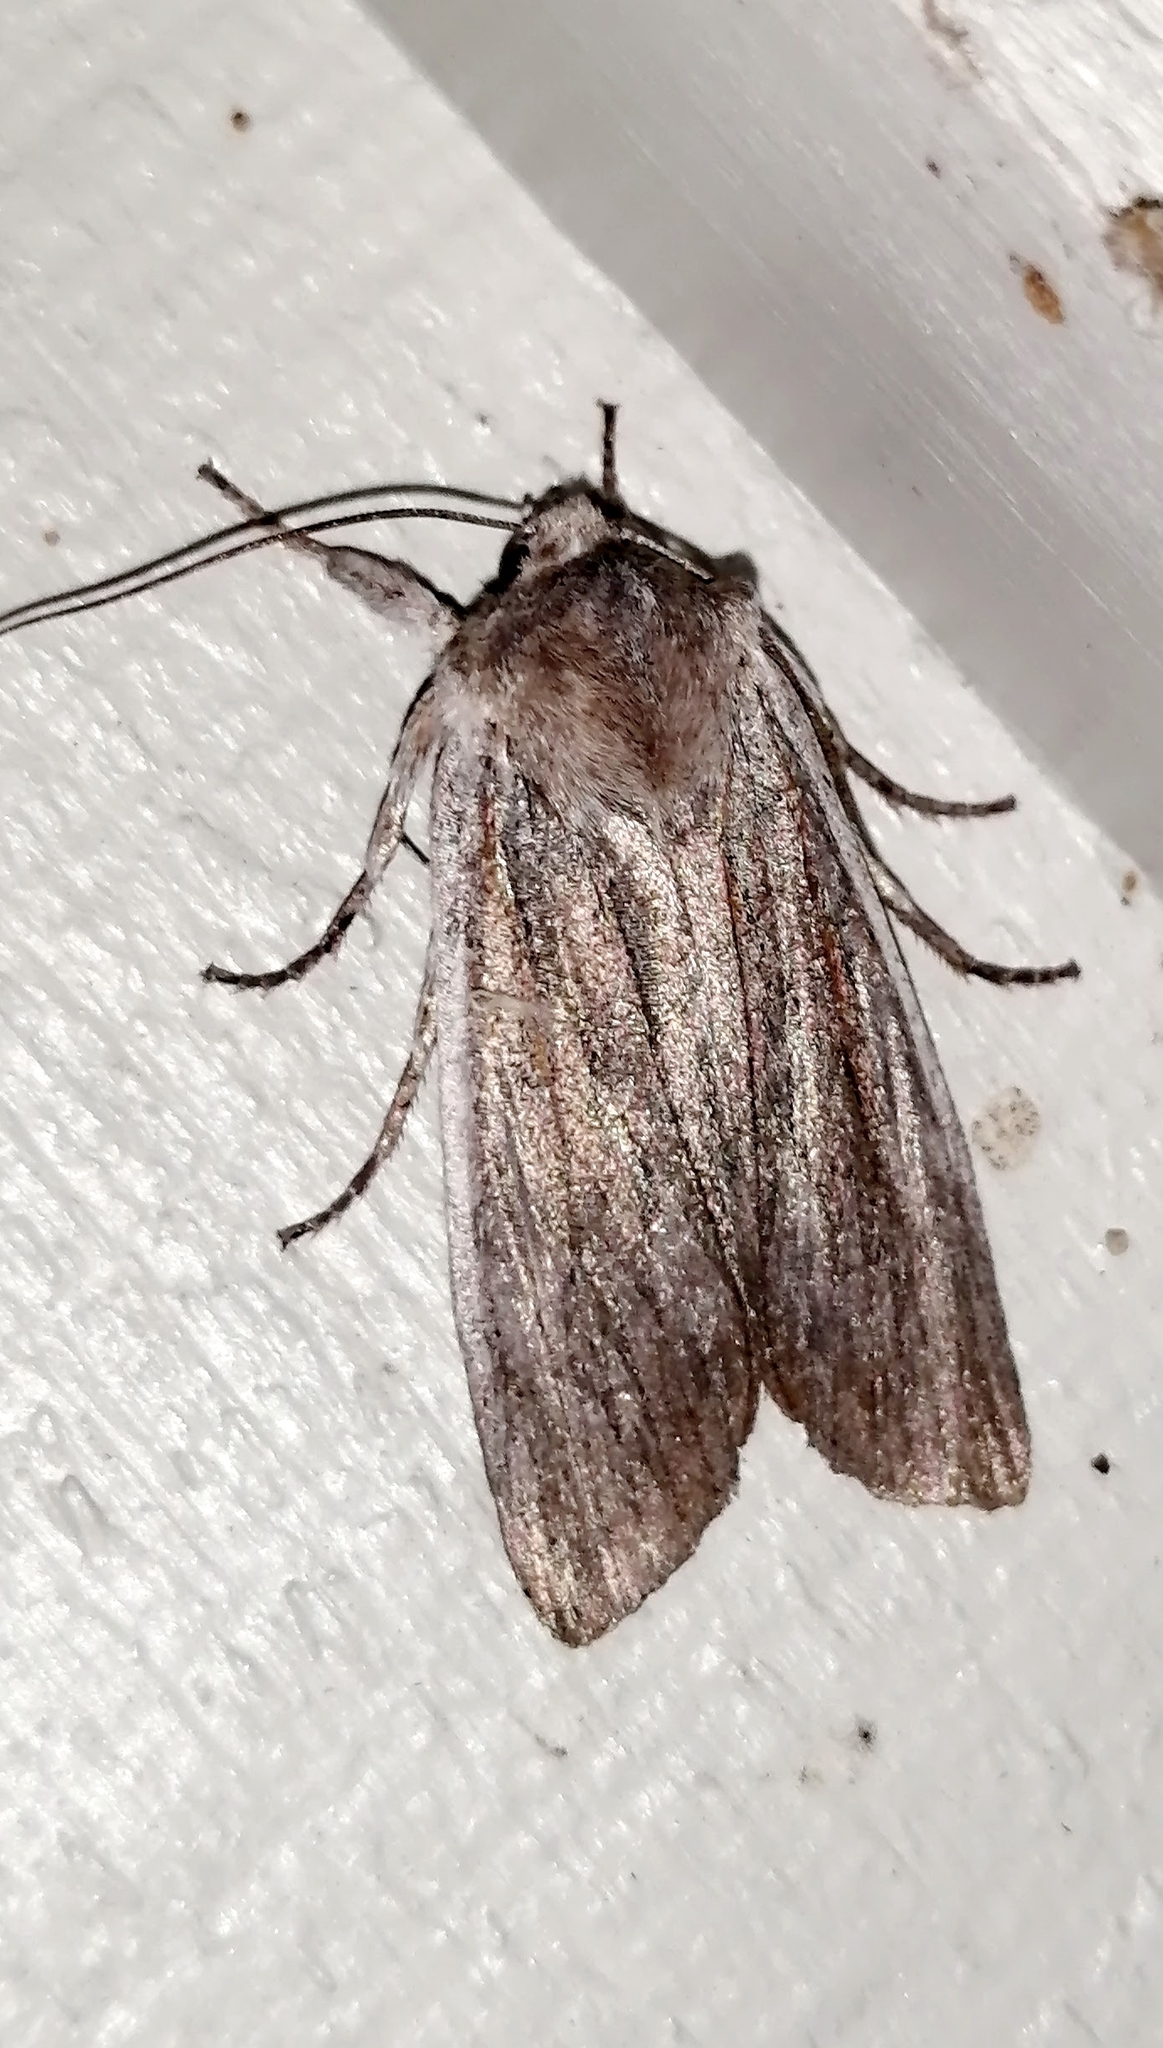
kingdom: Animalia
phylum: Arthropoda
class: Insecta
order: Lepidoptera
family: Noctuidae
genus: Lithophane
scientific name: Lithophane fagina
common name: Hoary pinion moth
